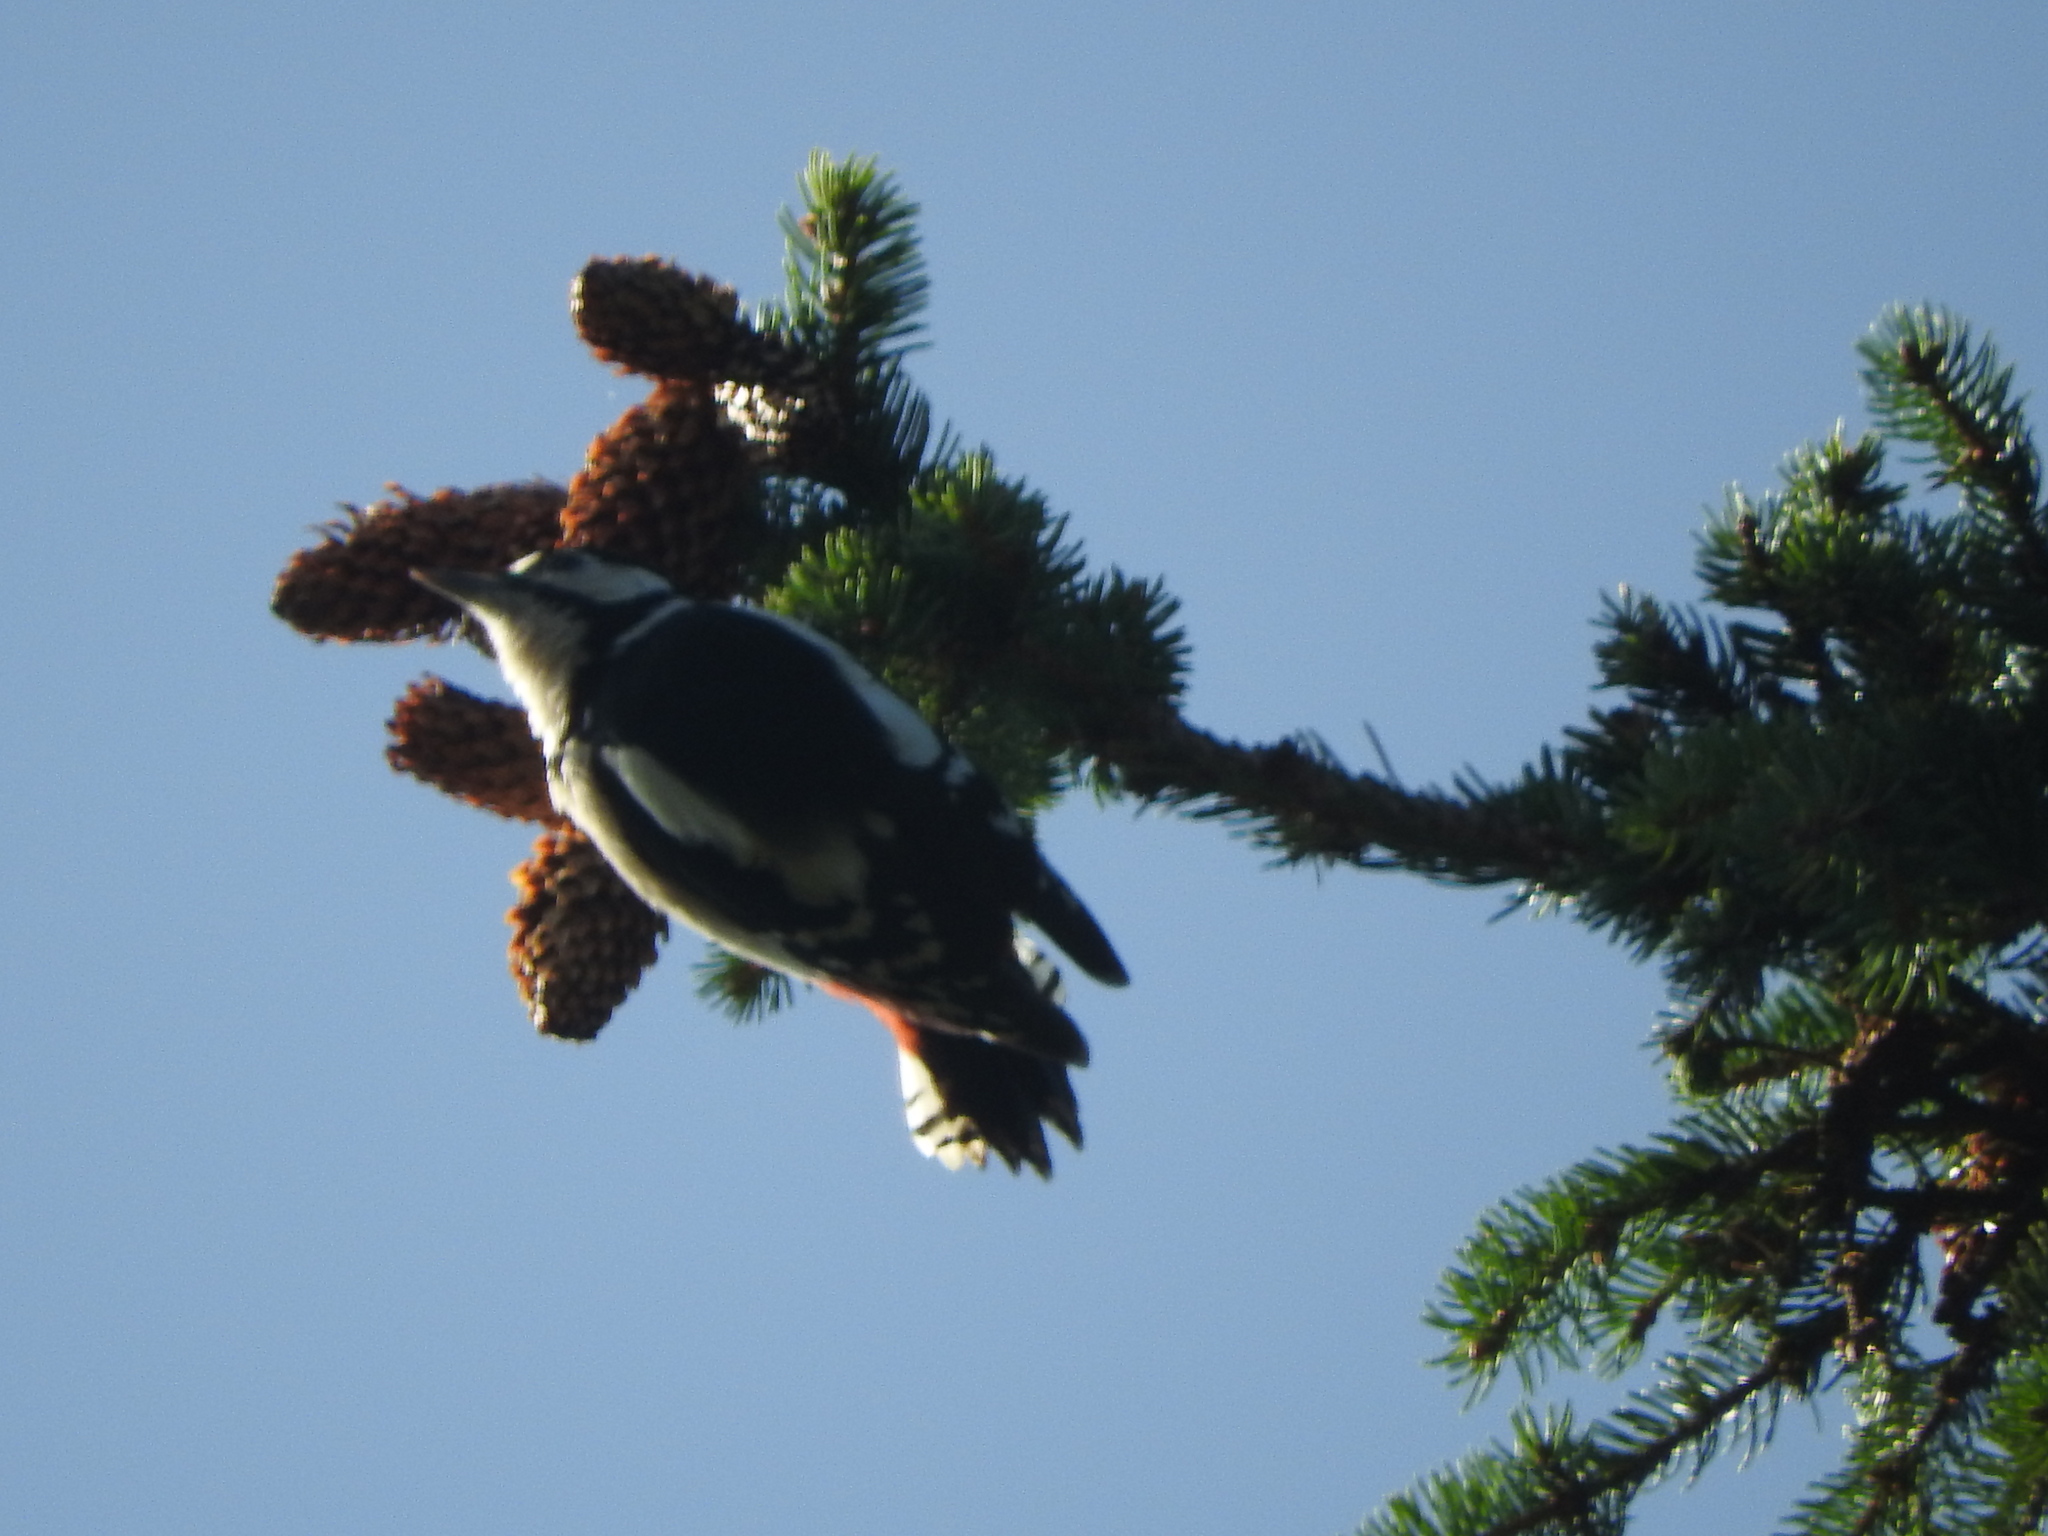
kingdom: Animalia
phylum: Chordata
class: Aves
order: Piciformes
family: Picidae
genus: Dendrocopos
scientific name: Dendrocopos major
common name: Great spotted woodpecker
